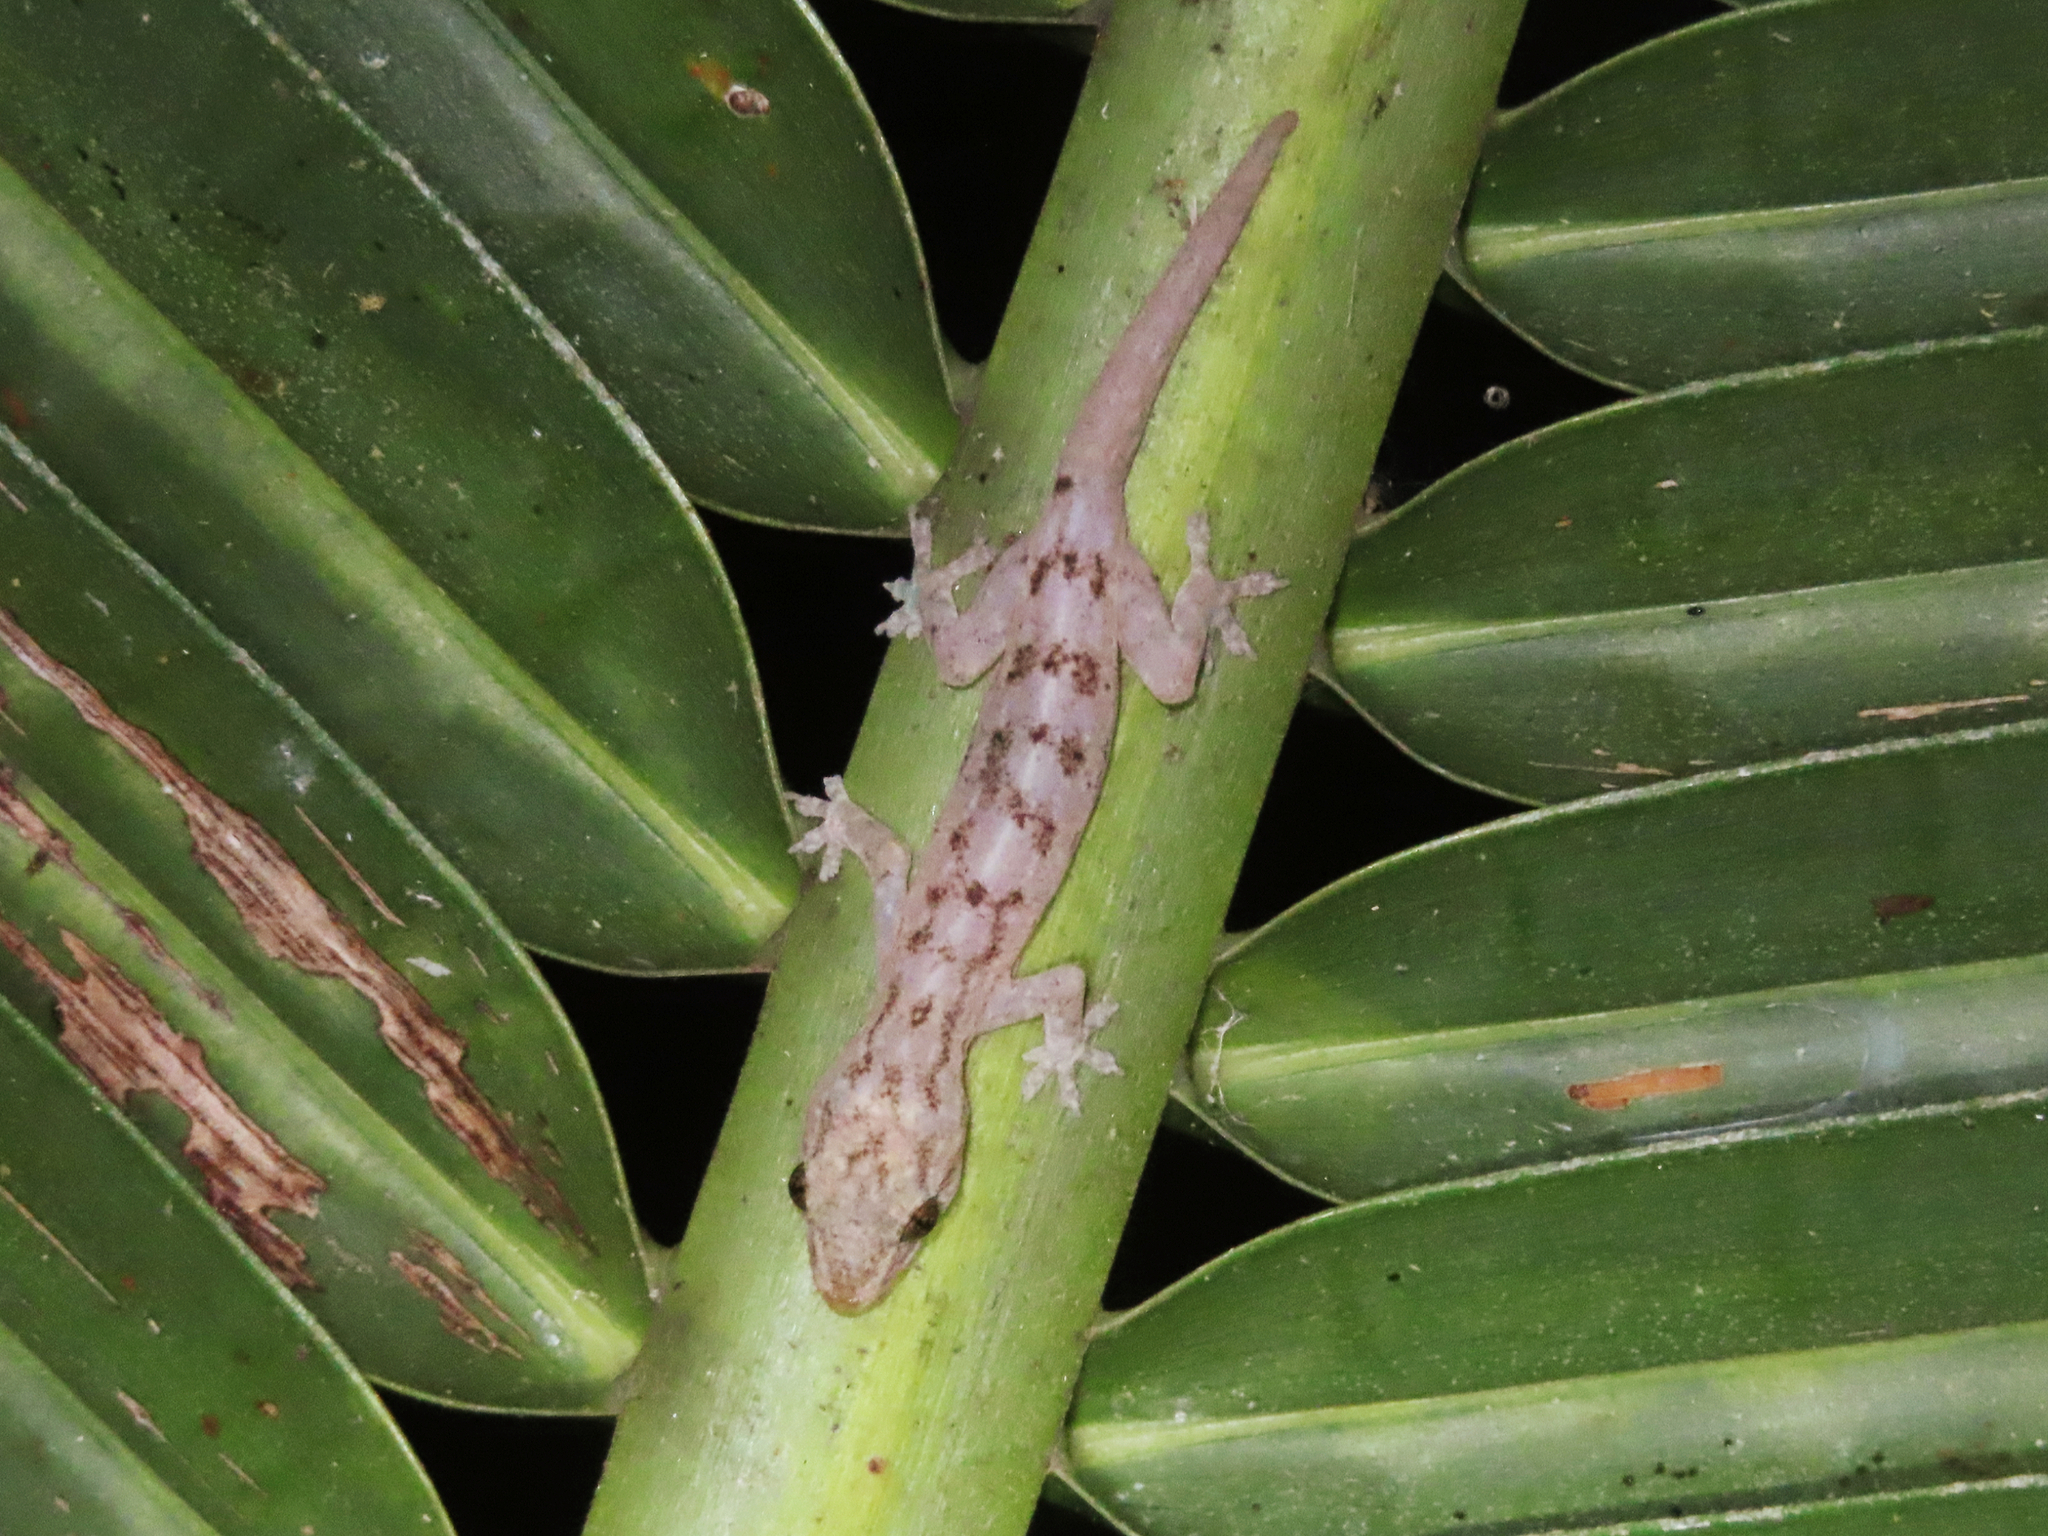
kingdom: Animalia
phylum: Chordata
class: Squamata
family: Gekkonidae
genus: Hemidactylus
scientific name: Hemidactylus frenatus
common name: Common house gecko
